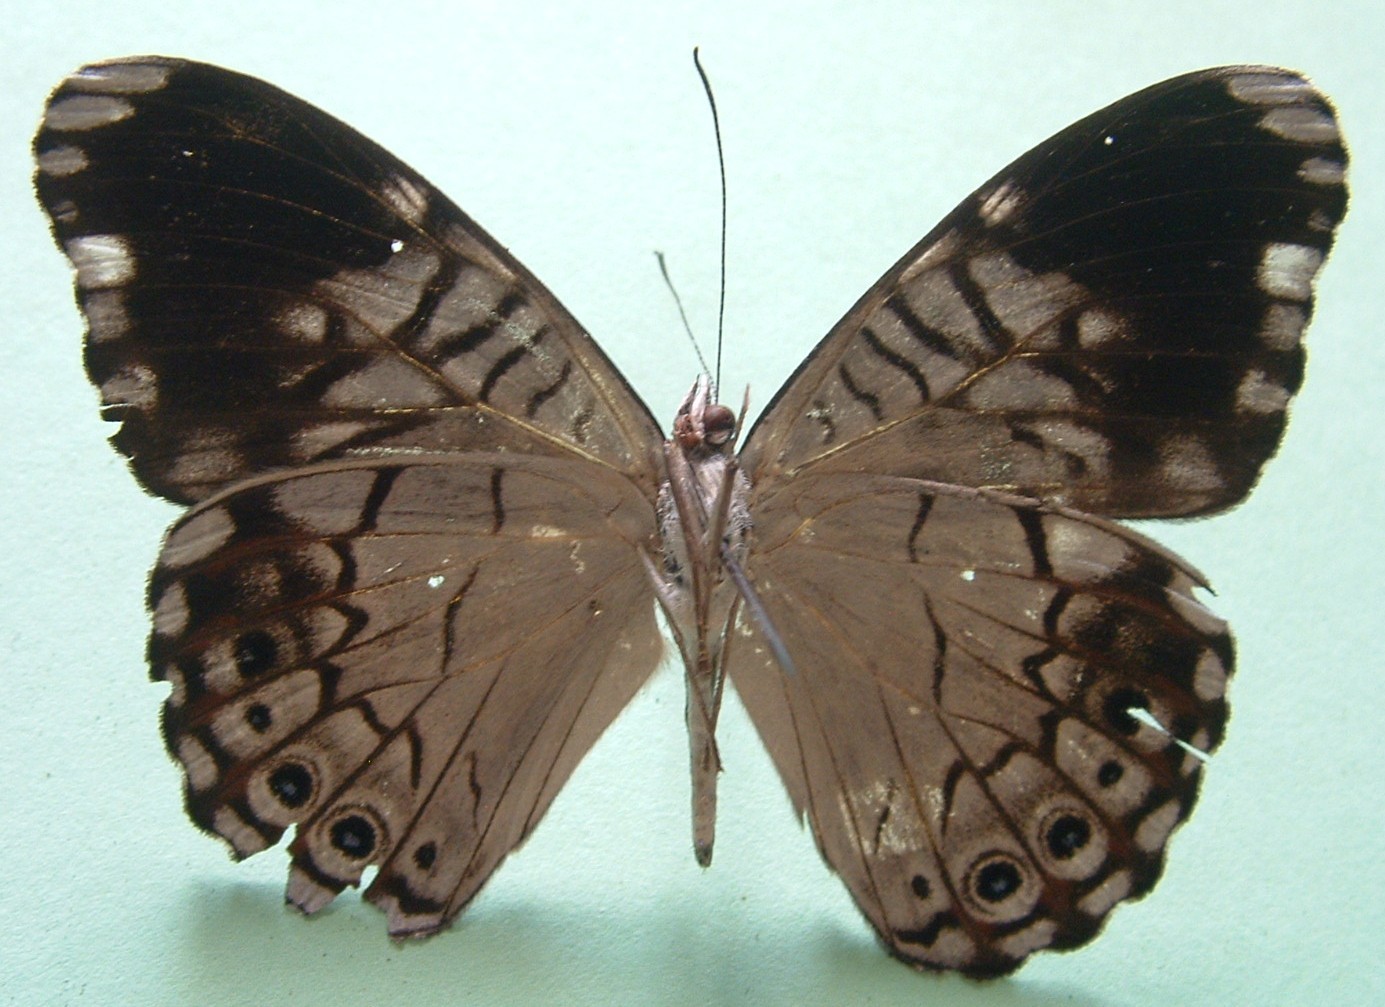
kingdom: Animalia
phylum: Arthropoda
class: Insecta
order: Lepidoptera
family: Nymphalidae
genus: Hamadryas
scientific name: Hamadryas atlantis
